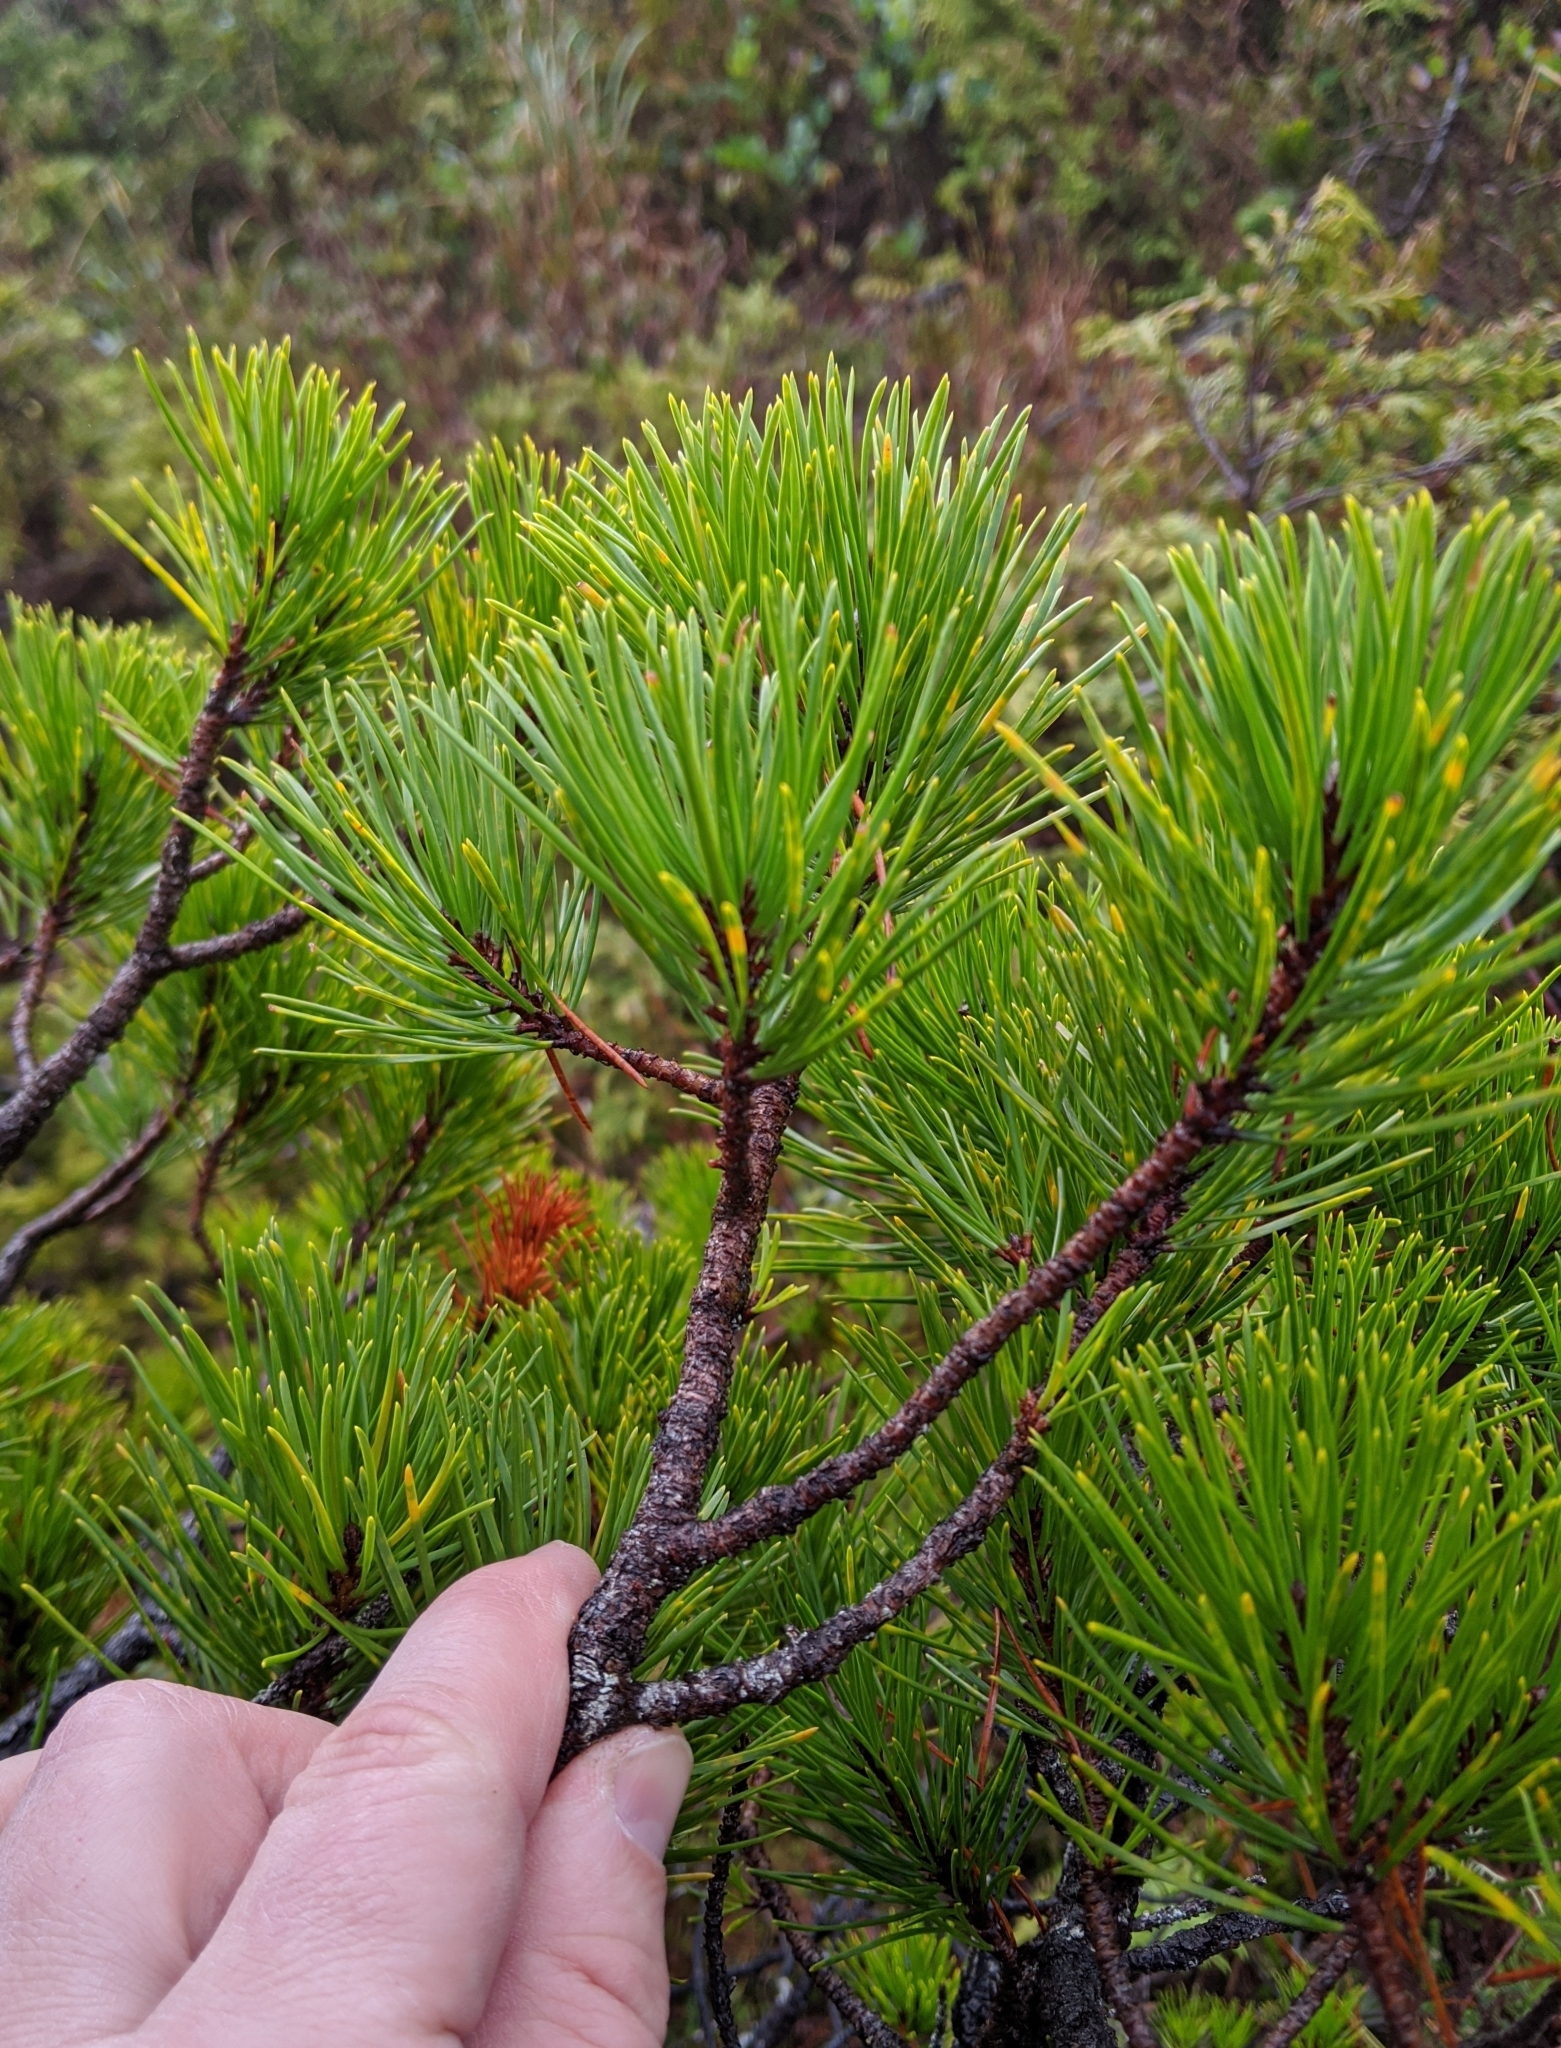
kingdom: Plantae
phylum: Tracheophyta
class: Pinopsida
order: Pinales
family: Pinaceae
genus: Pinus
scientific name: Pinus contorta
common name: Lodgepole pine
